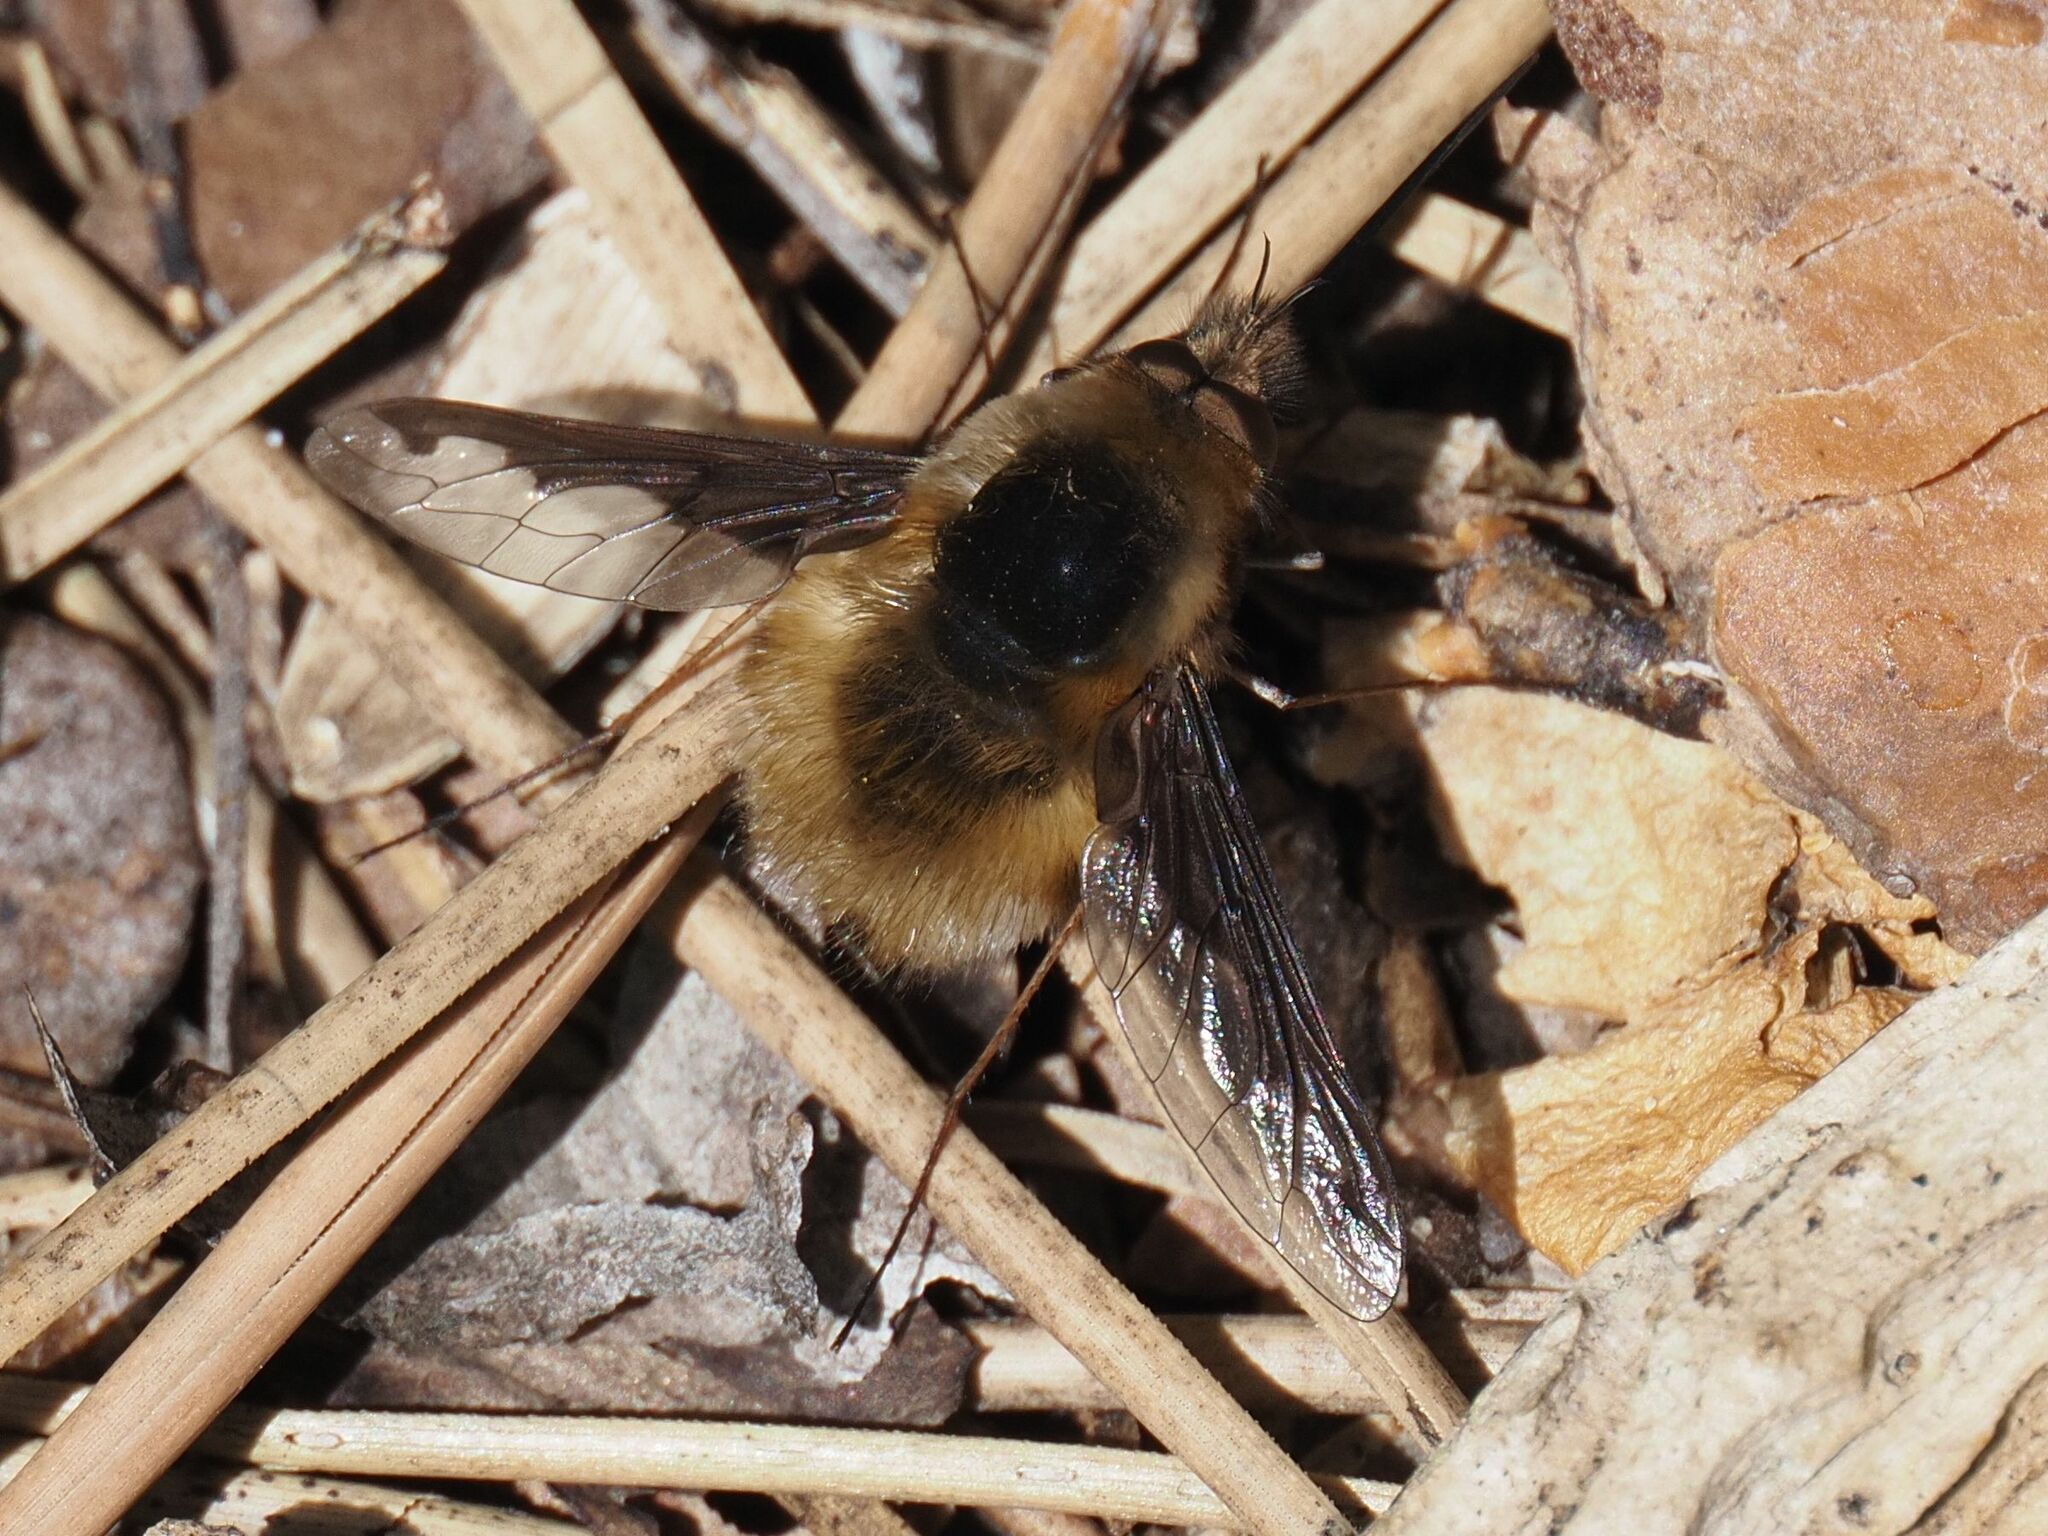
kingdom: Animalia
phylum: Arthropoda
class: Insecta
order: Diptera
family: Bombyliidae
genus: Bombylius
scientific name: Bombylius major
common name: Bee fly
